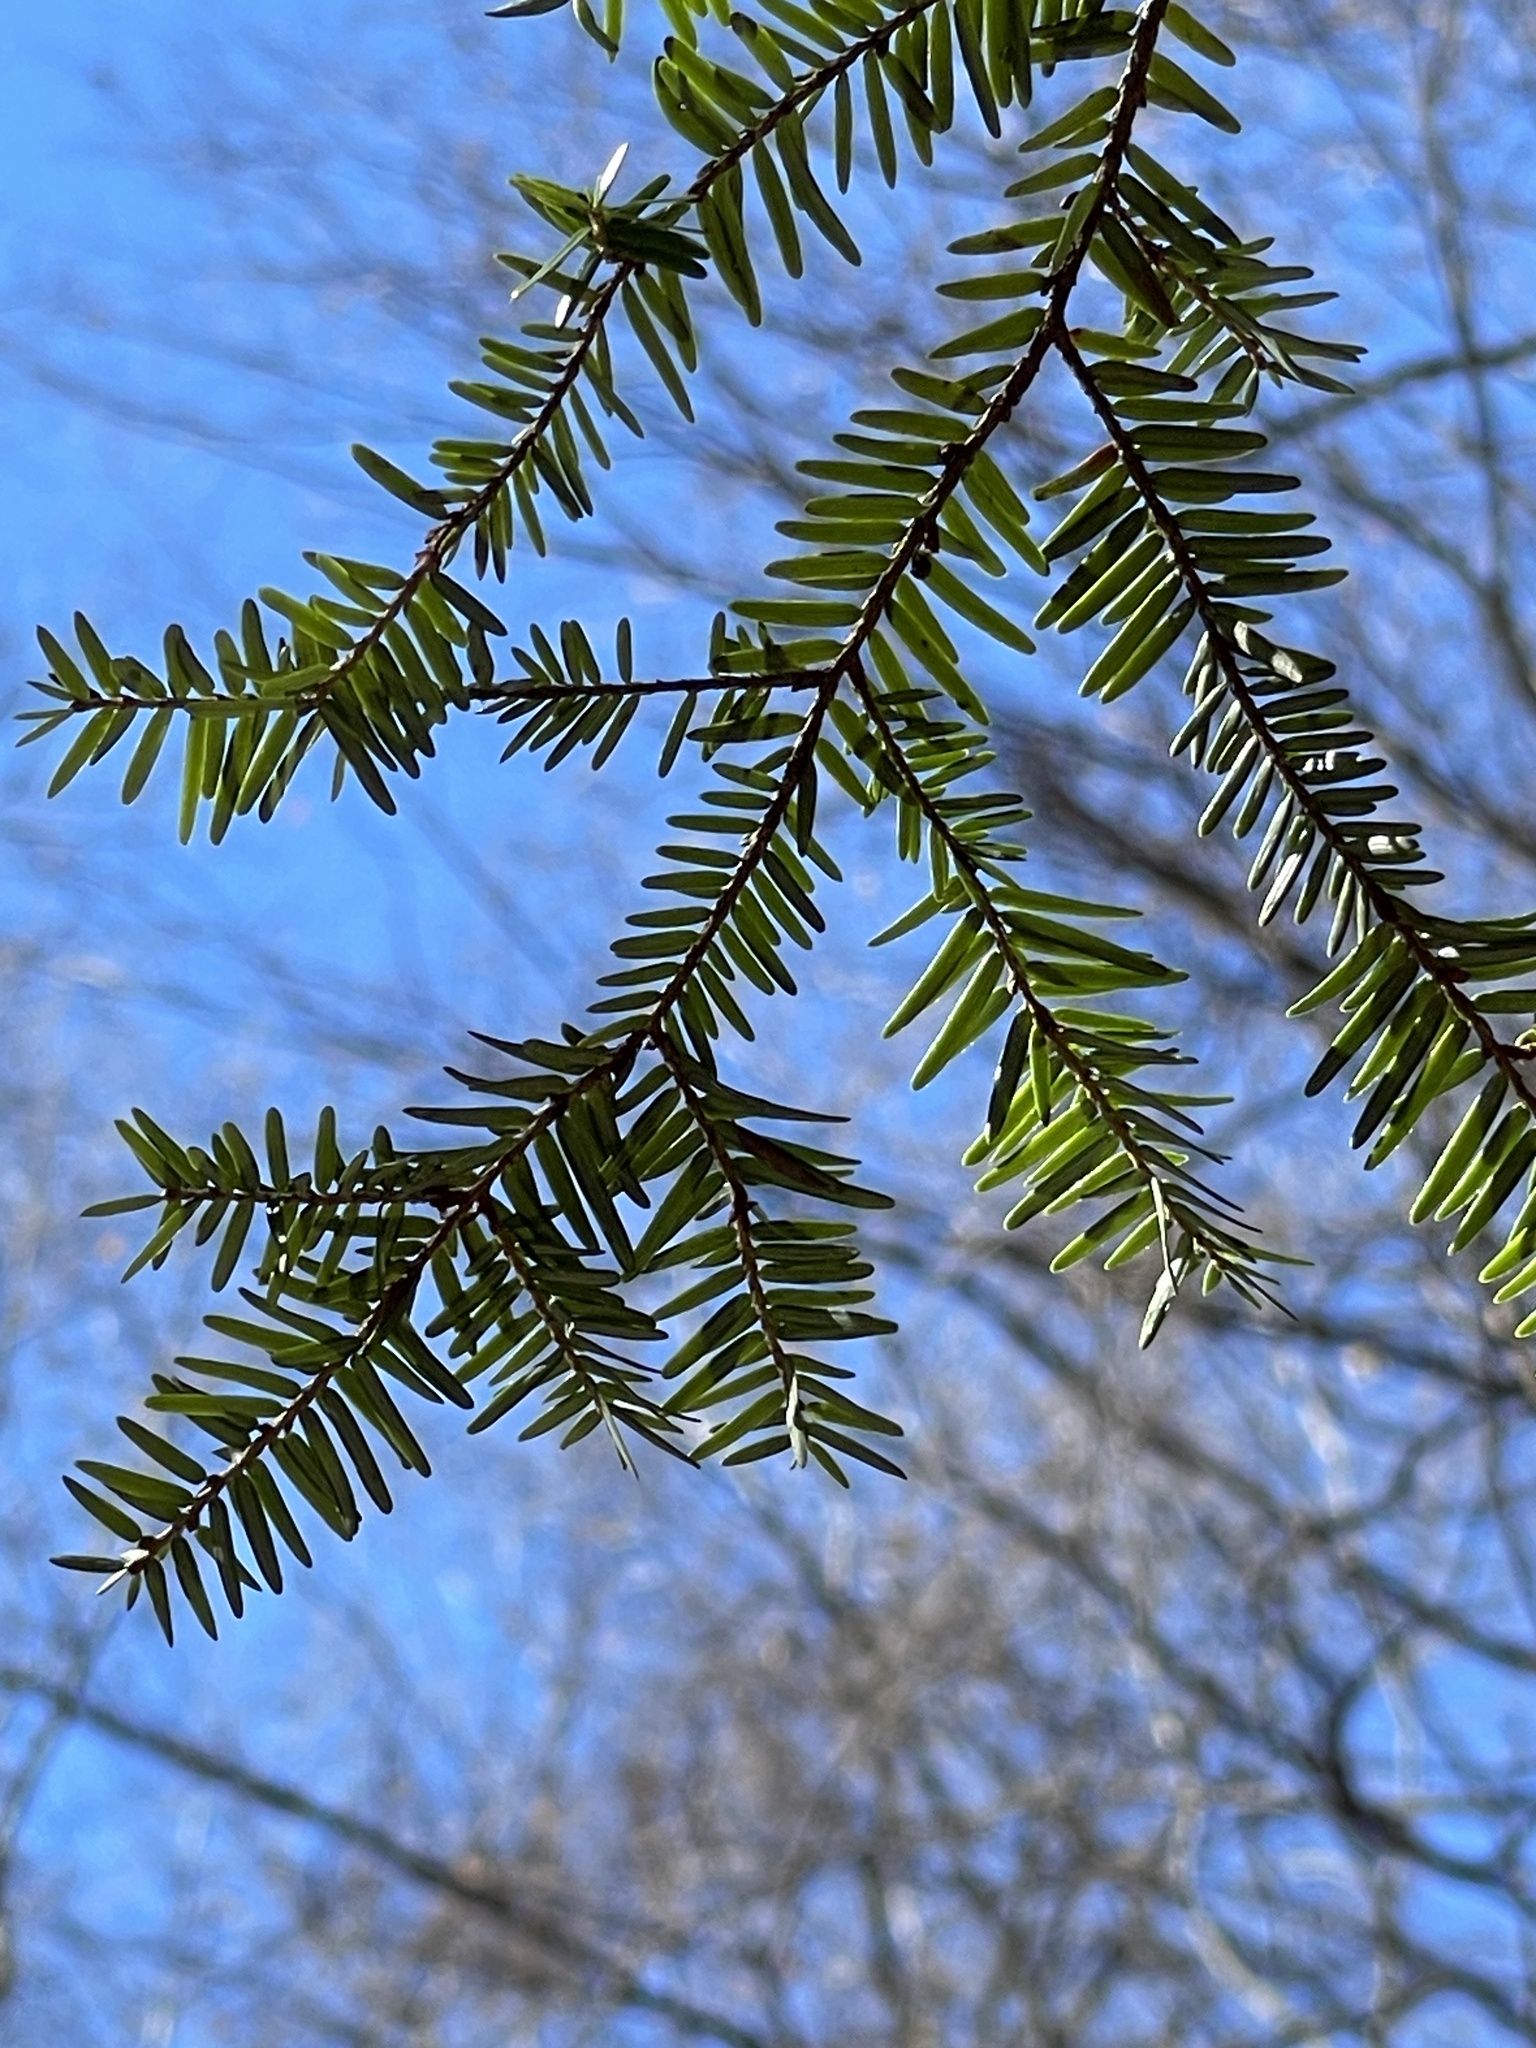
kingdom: Plantae
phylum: Tracheophyta
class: Pinopsida
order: Pinales
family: Pinaceae
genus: Tsuga
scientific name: Tsuga canadensis
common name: Eastern hemlock
